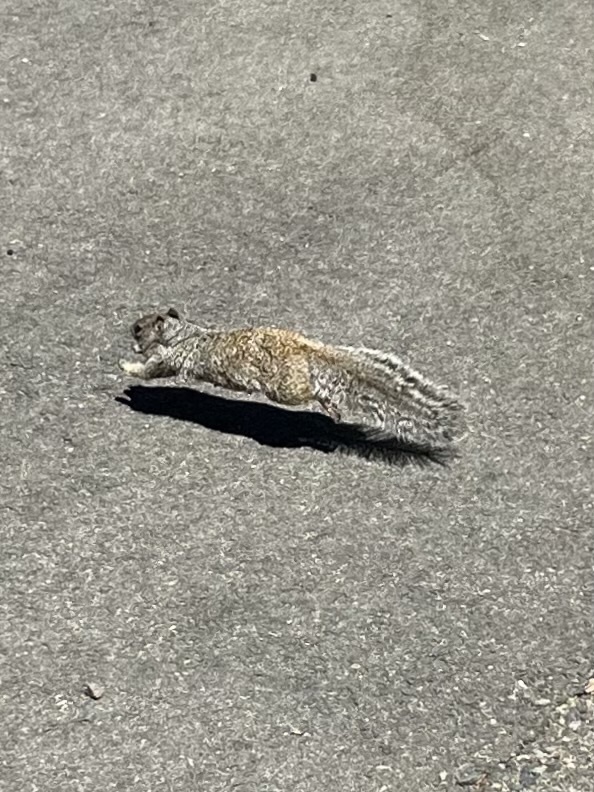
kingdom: Animalia
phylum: Chordata
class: Mammalia
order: Rodentia
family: Sciuridae
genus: Otospermophilus
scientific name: Otospermophilus variegatus
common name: Rock squirrel
